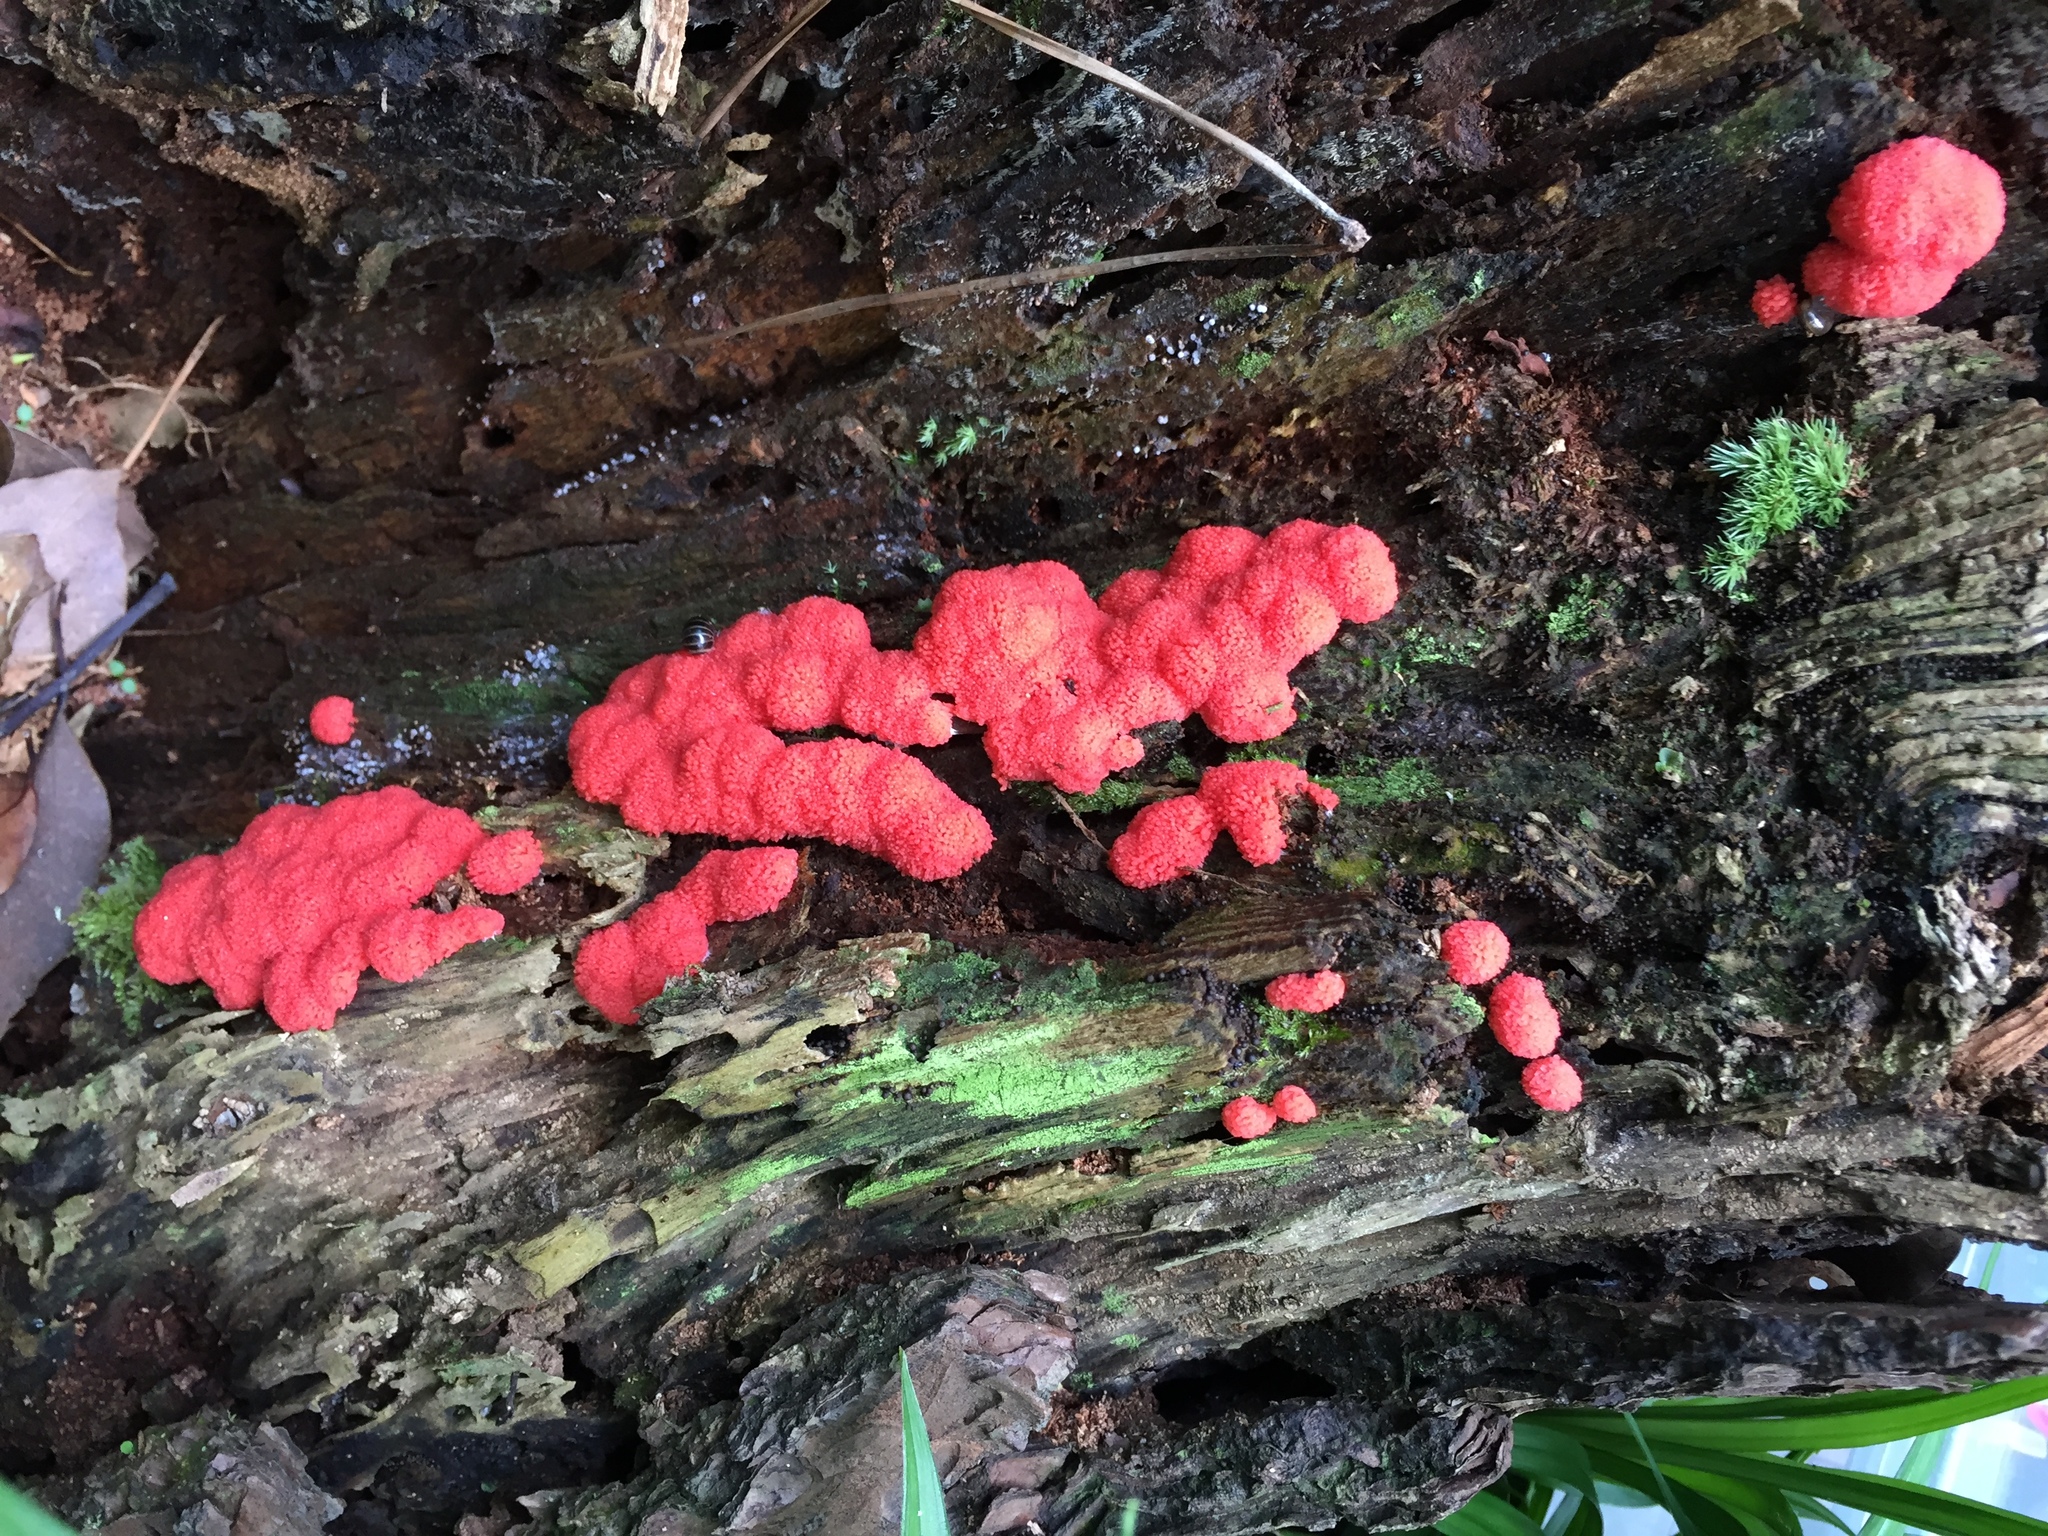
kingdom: Protozoa
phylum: Mycetozoa
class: Myxomycetes
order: Cribrariales
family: Tubiferaceae
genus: Tubifera
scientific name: Tubifera ferruginosa
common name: Red raspberry slime mold
